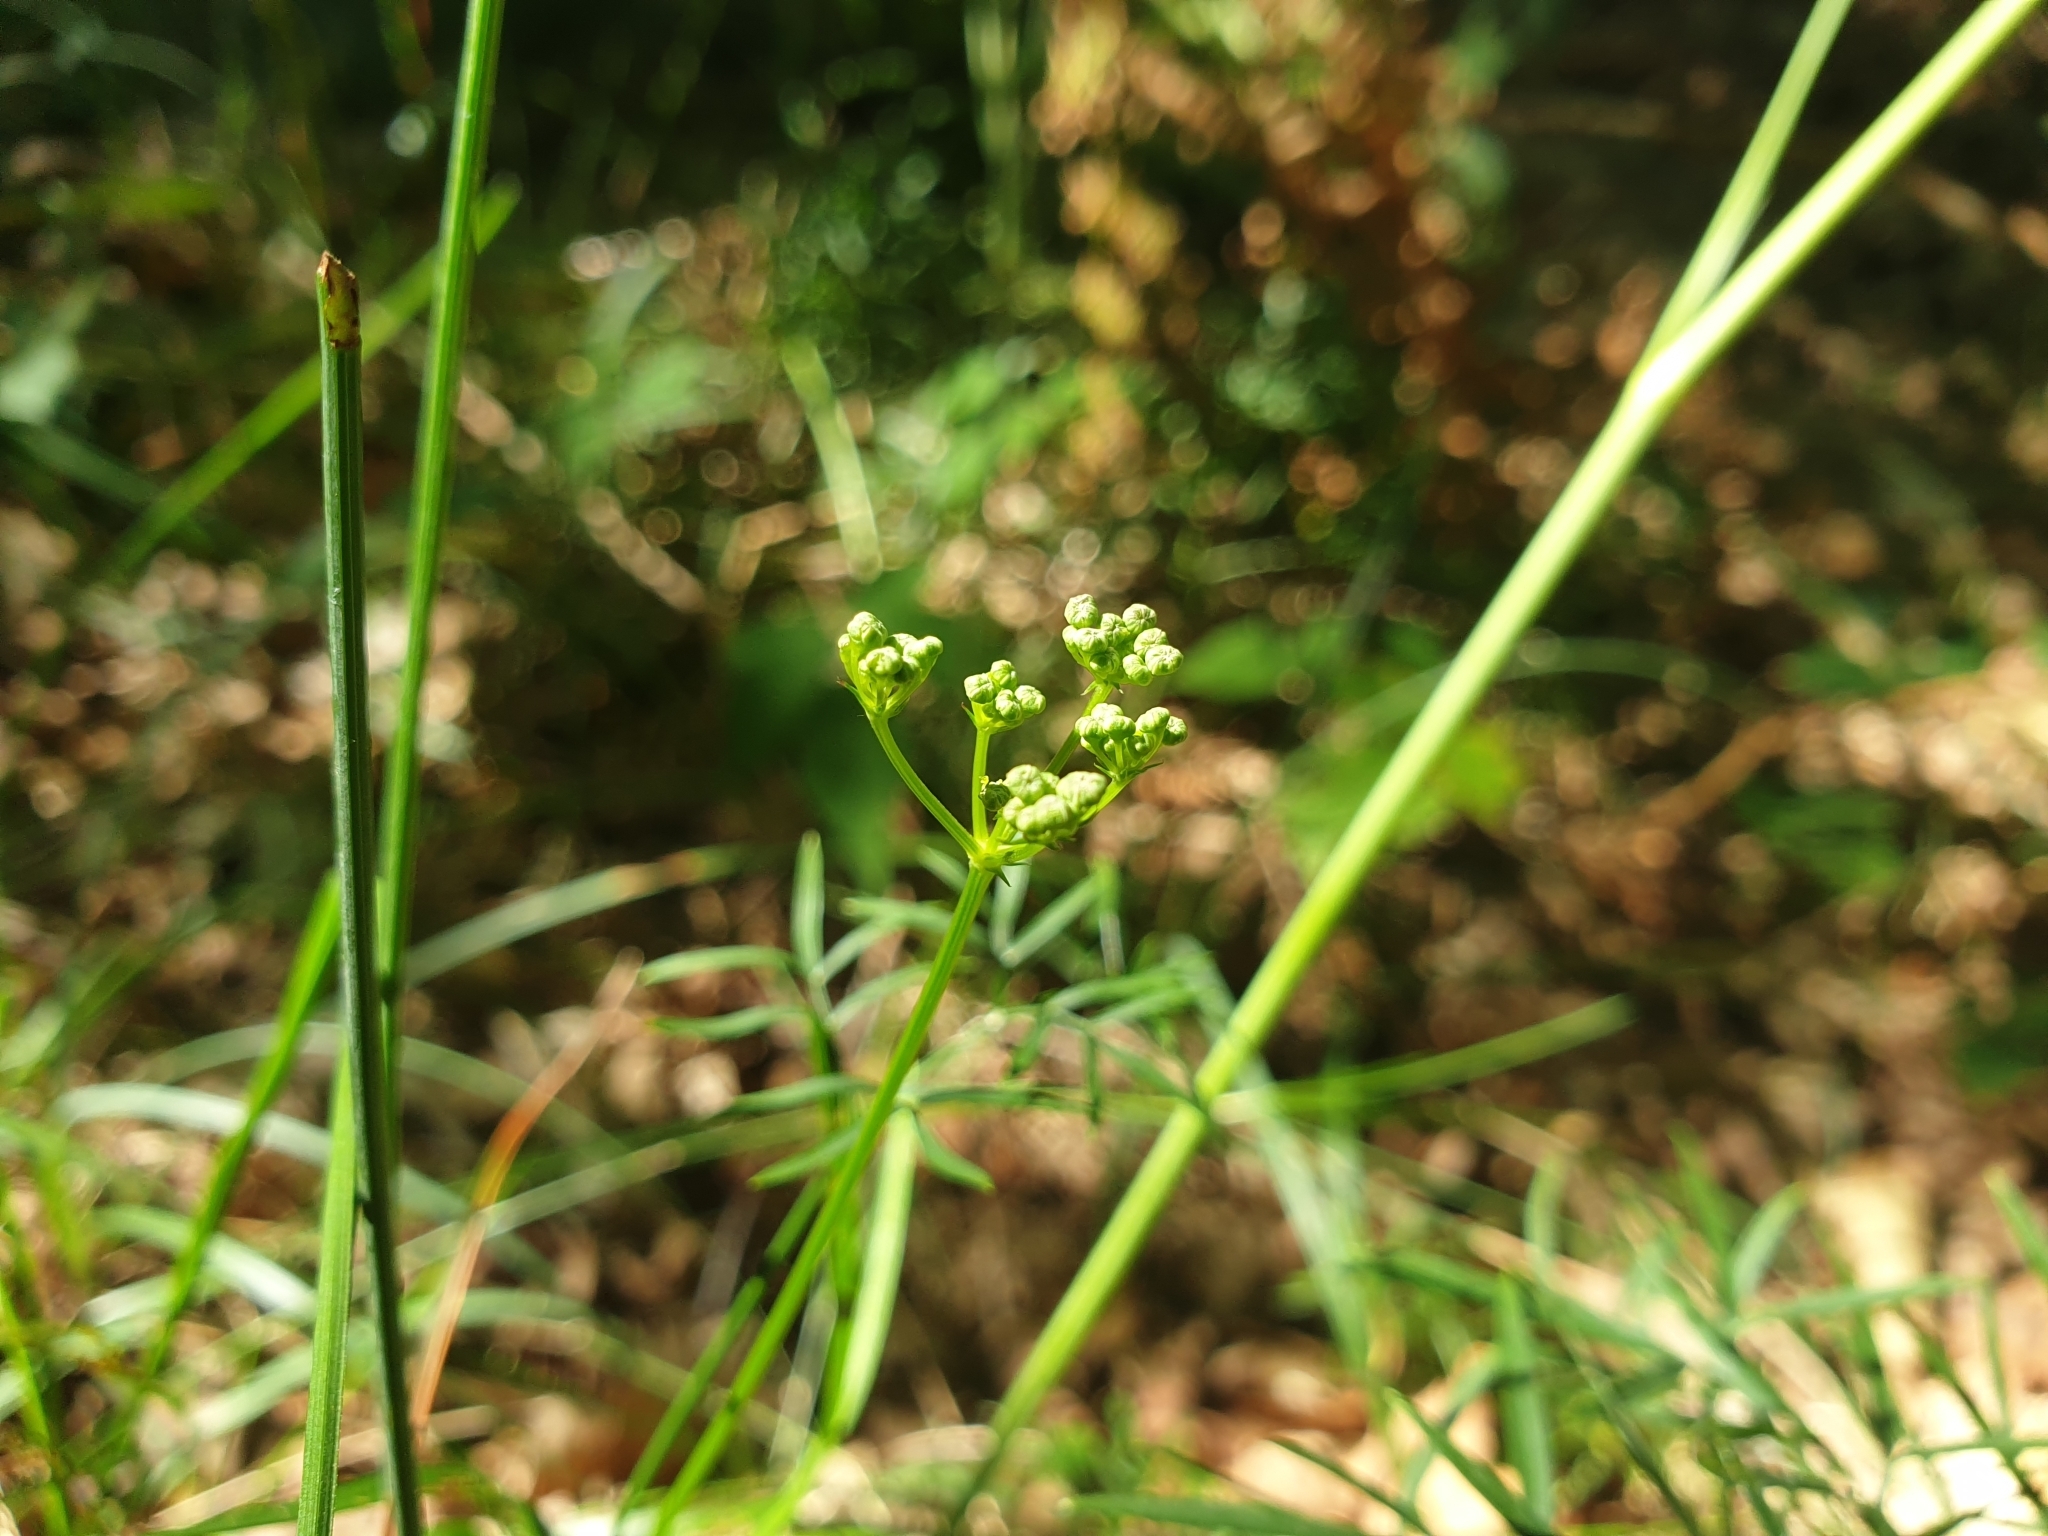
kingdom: Plantae
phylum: Tracheophyta
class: Magnoliopsida
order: Apiales
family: Apiaceae
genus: Peucedanum
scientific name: Peucedanum gallicum
